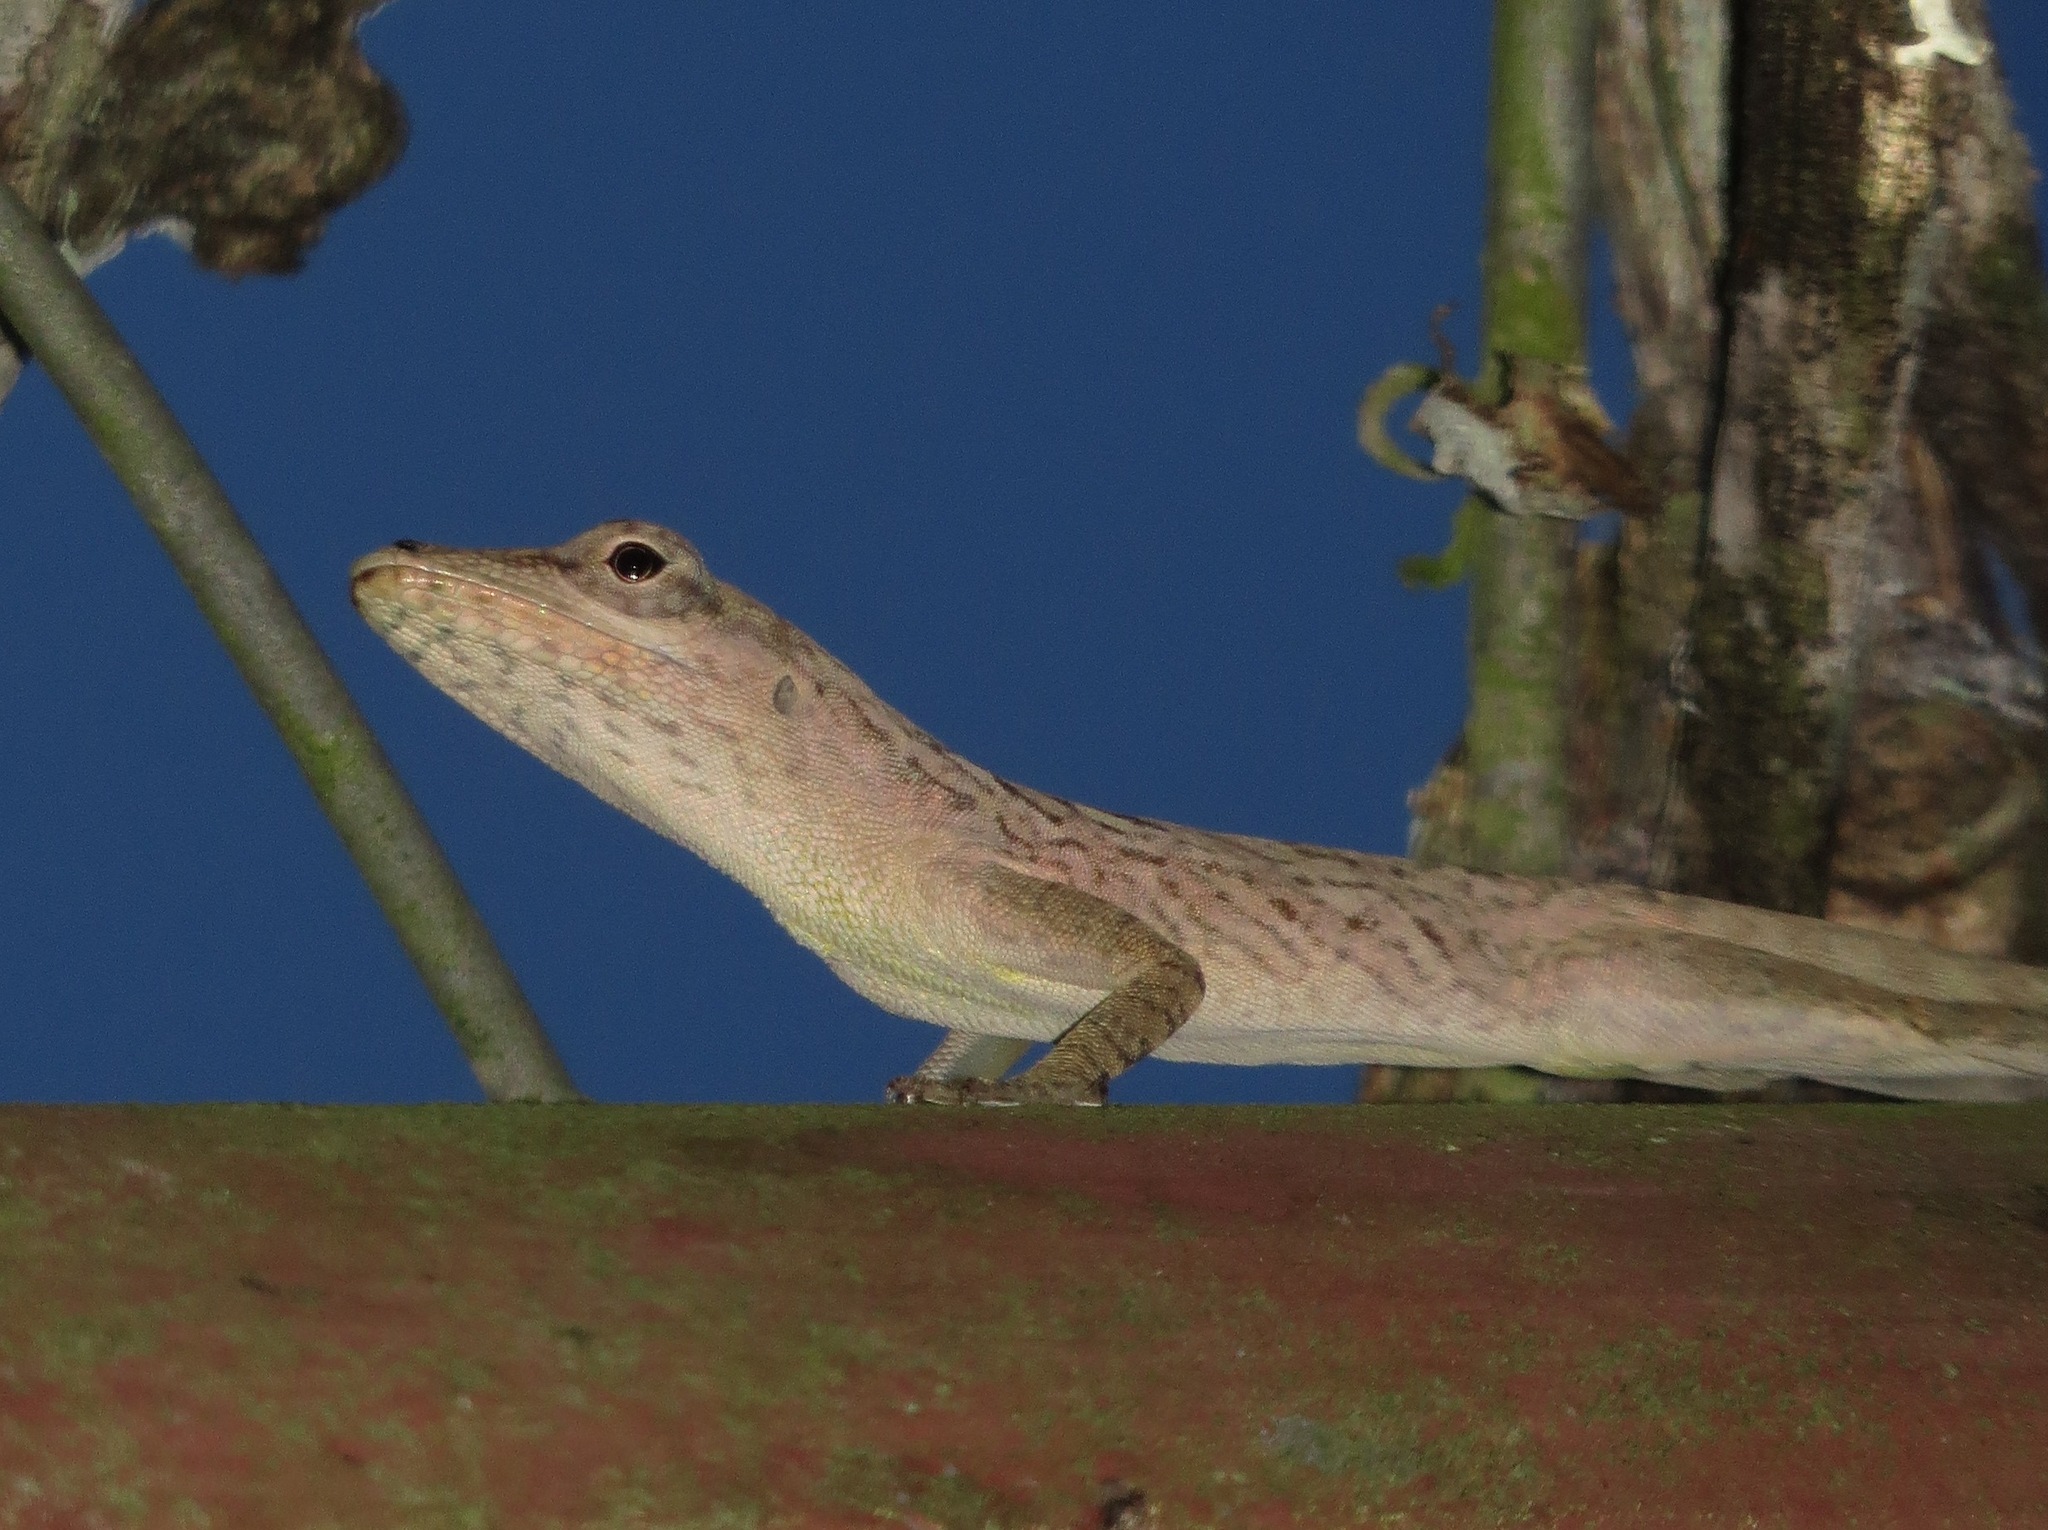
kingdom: Animalia
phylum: Chordata
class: Squamata
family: Dactyloidae
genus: Anolis
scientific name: Anolis aeneus
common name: Bronze anole
